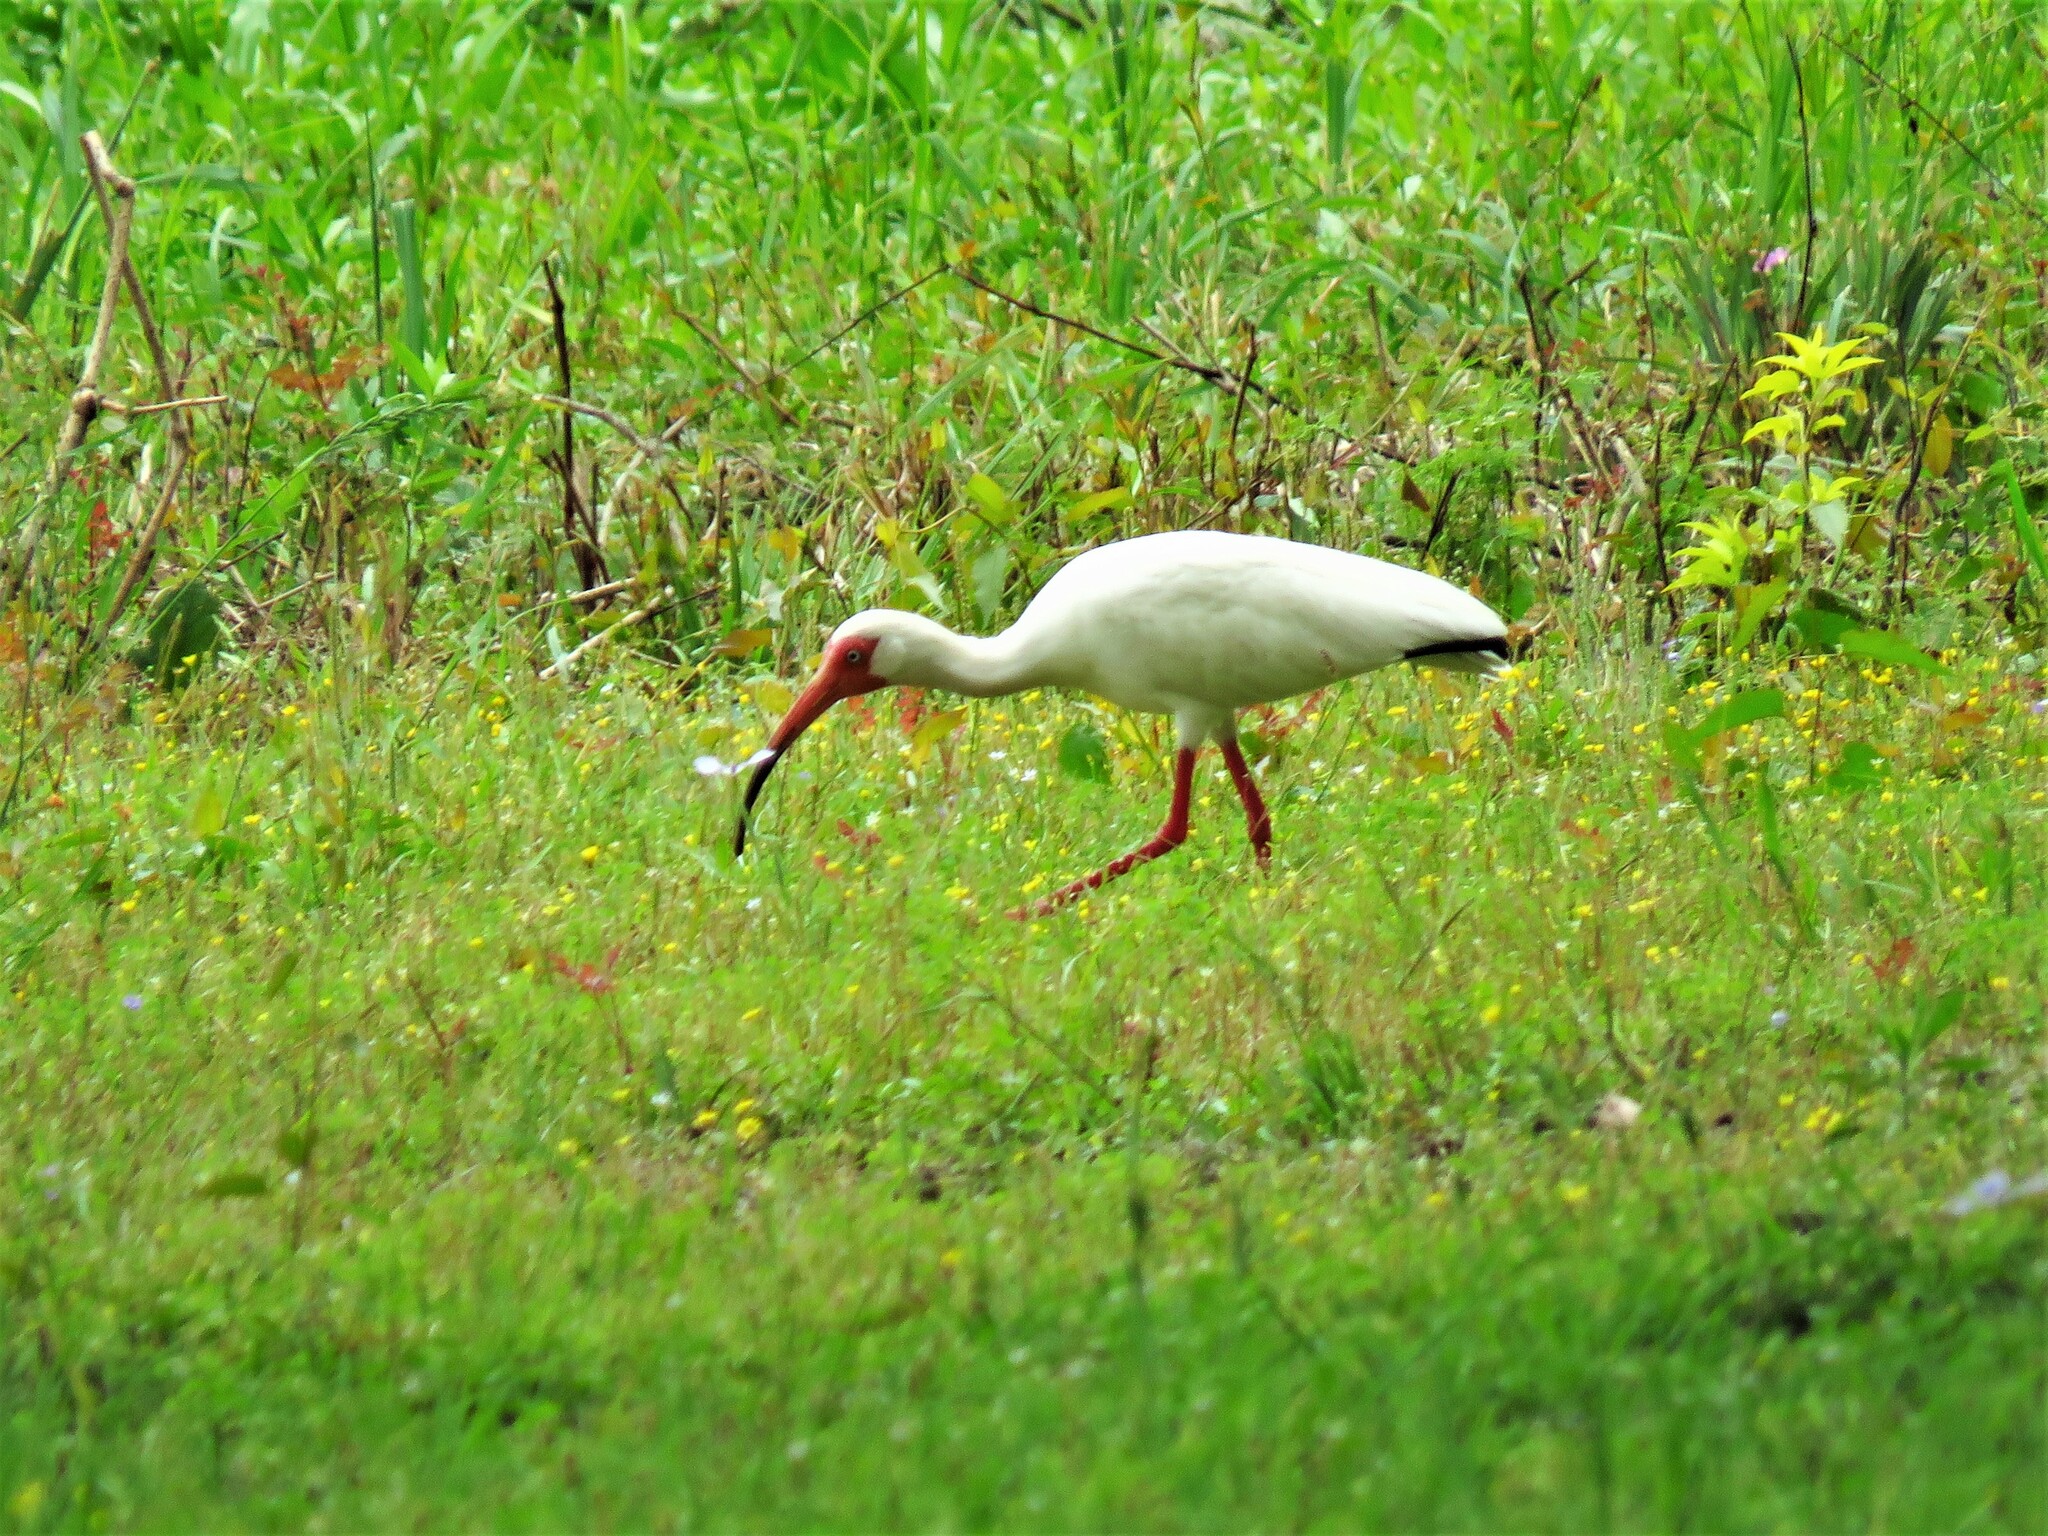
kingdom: Animalia
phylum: Chordata
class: Aves
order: Pelecaniformes
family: Threskiornithidae
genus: Eudocimus
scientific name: Eudocimus albus
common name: White ibis
